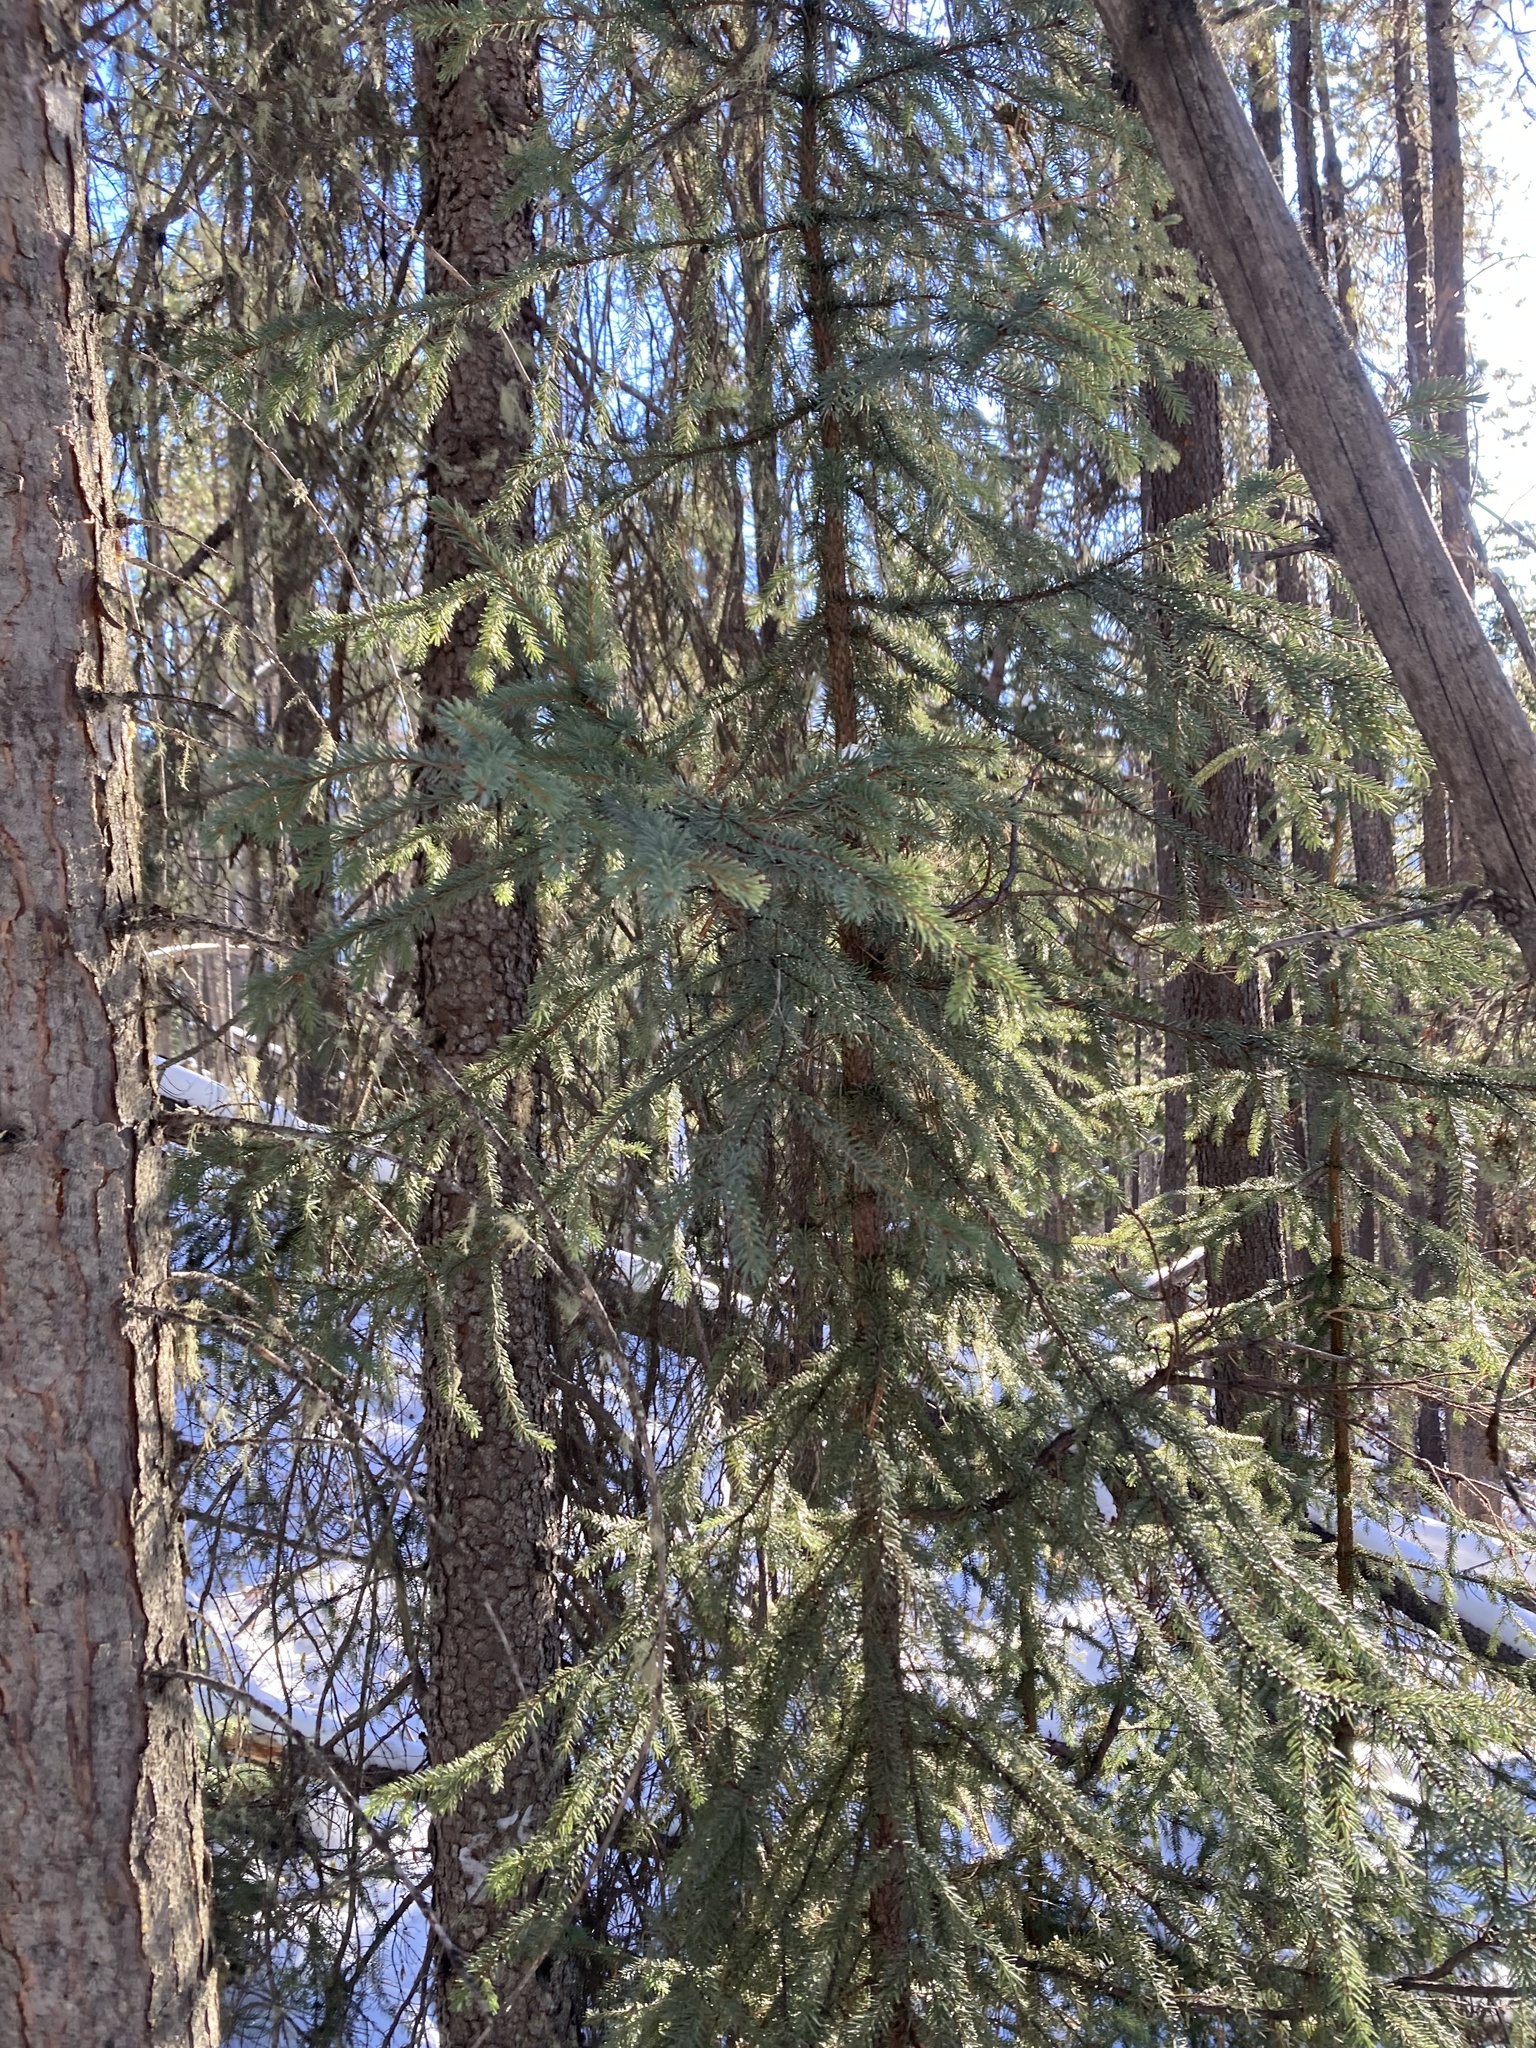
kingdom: Plantae
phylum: Tracheophyta
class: Pinopsida
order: Pinales
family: Pinaceae
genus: Picea
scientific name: Picea mariana
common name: Black spruce
